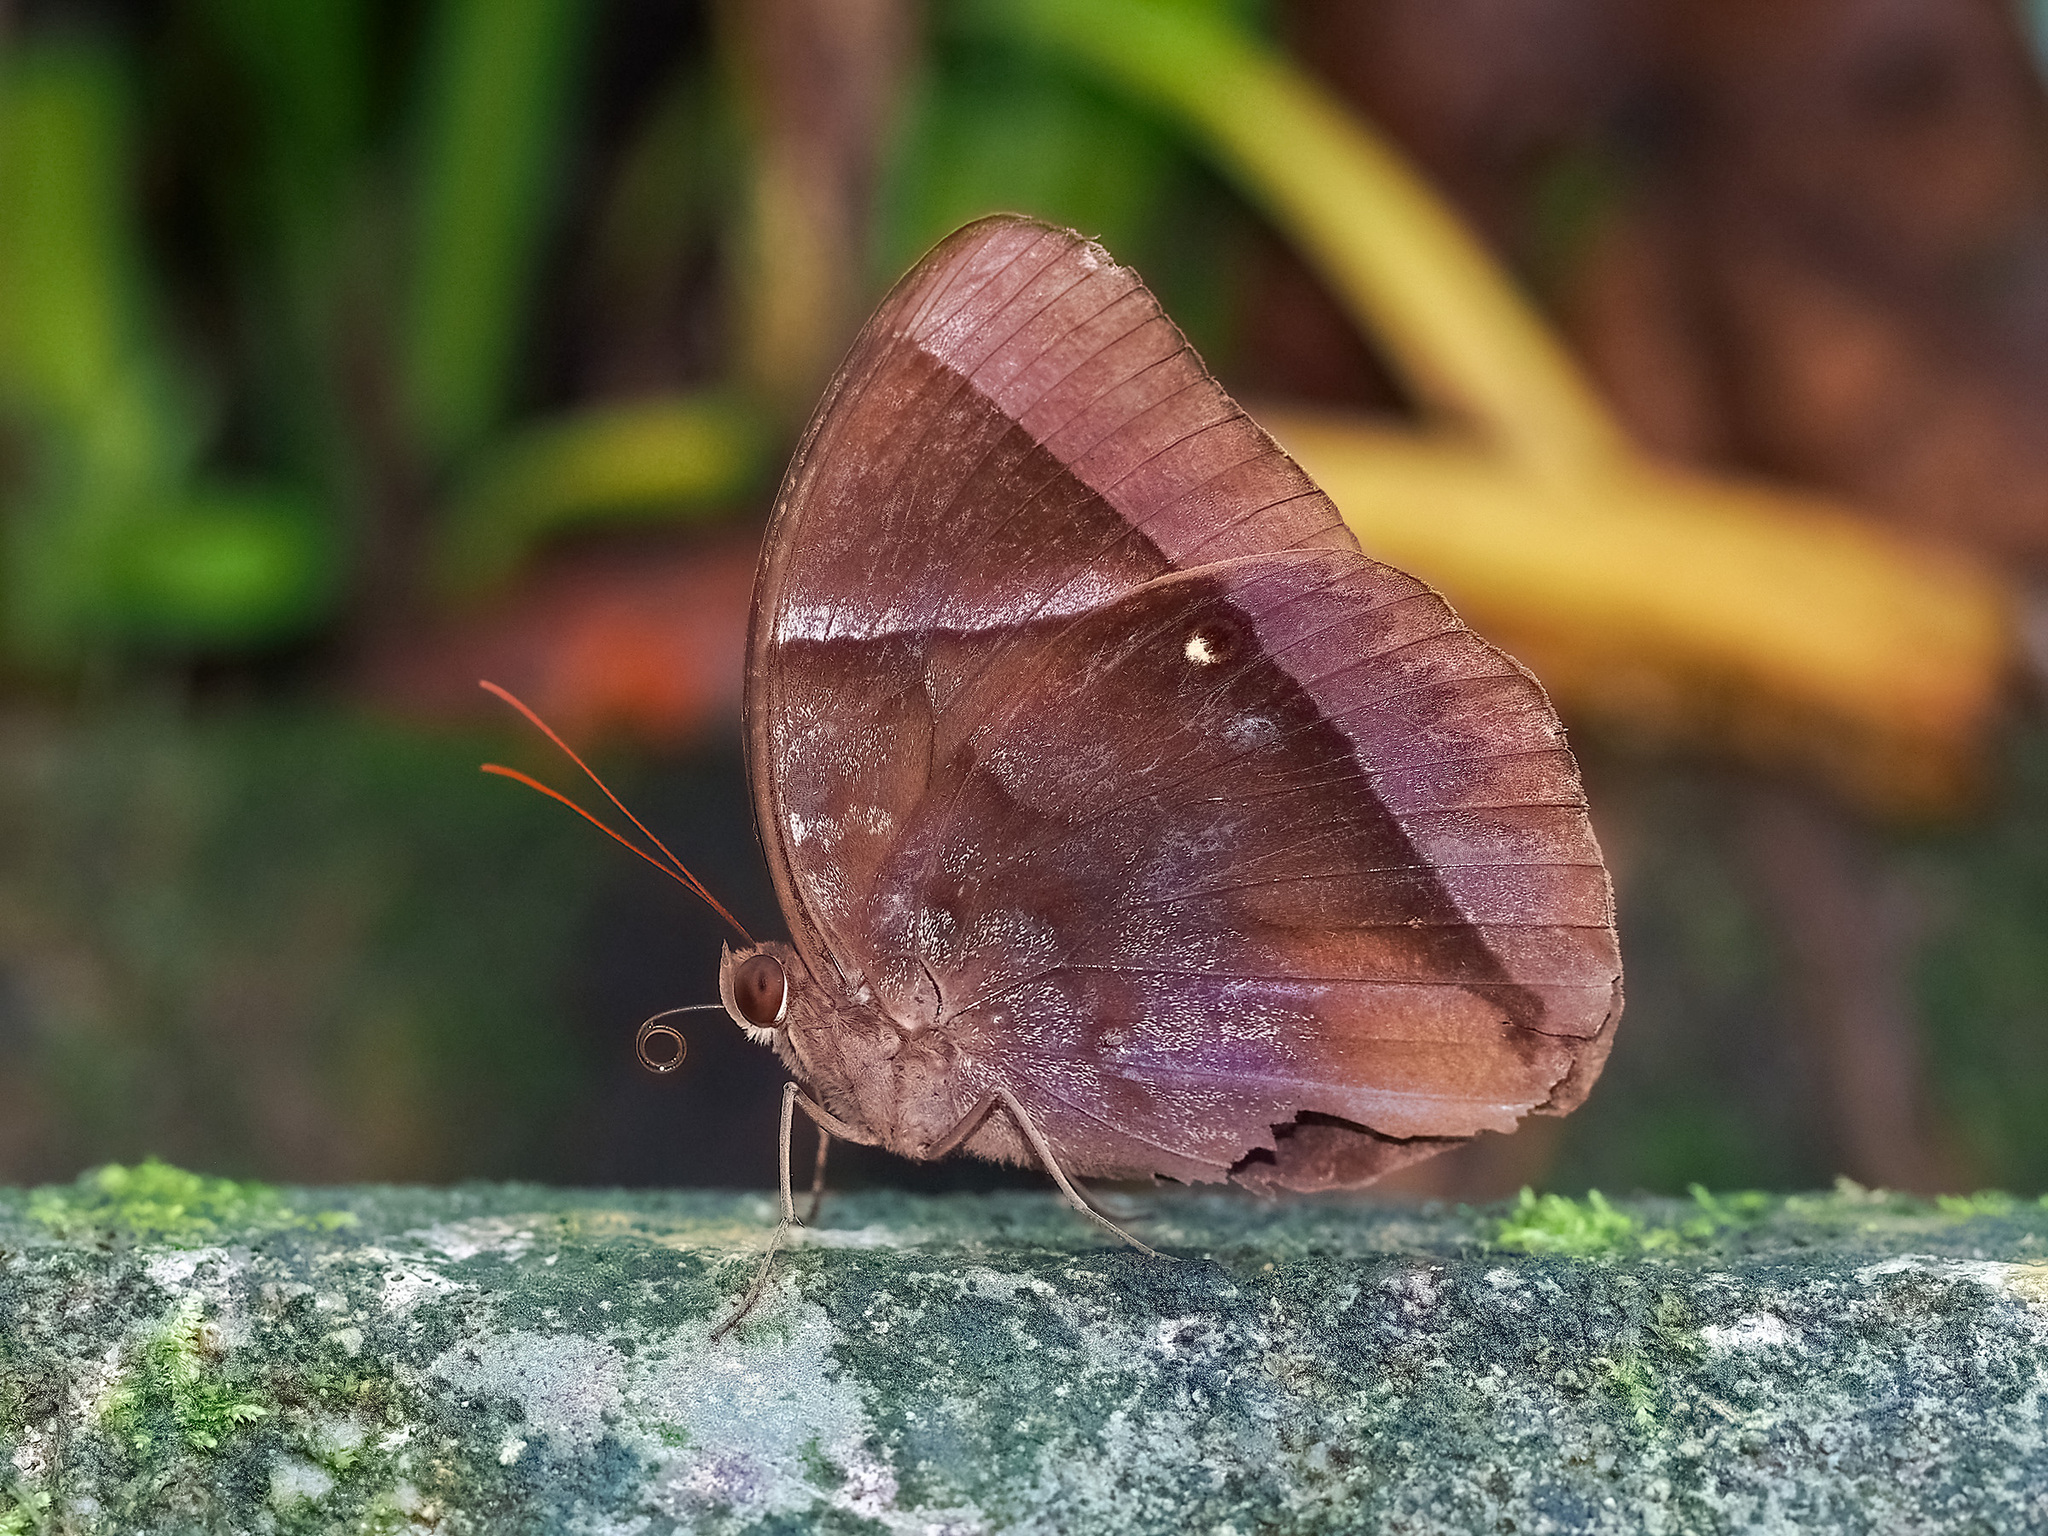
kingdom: Animalia
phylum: Arthropoda
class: Insecta
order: Lepidoptera
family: Nymphalidae
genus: Thaumantis
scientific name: Thaumantis klugius
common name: Dark blue jungle glory
